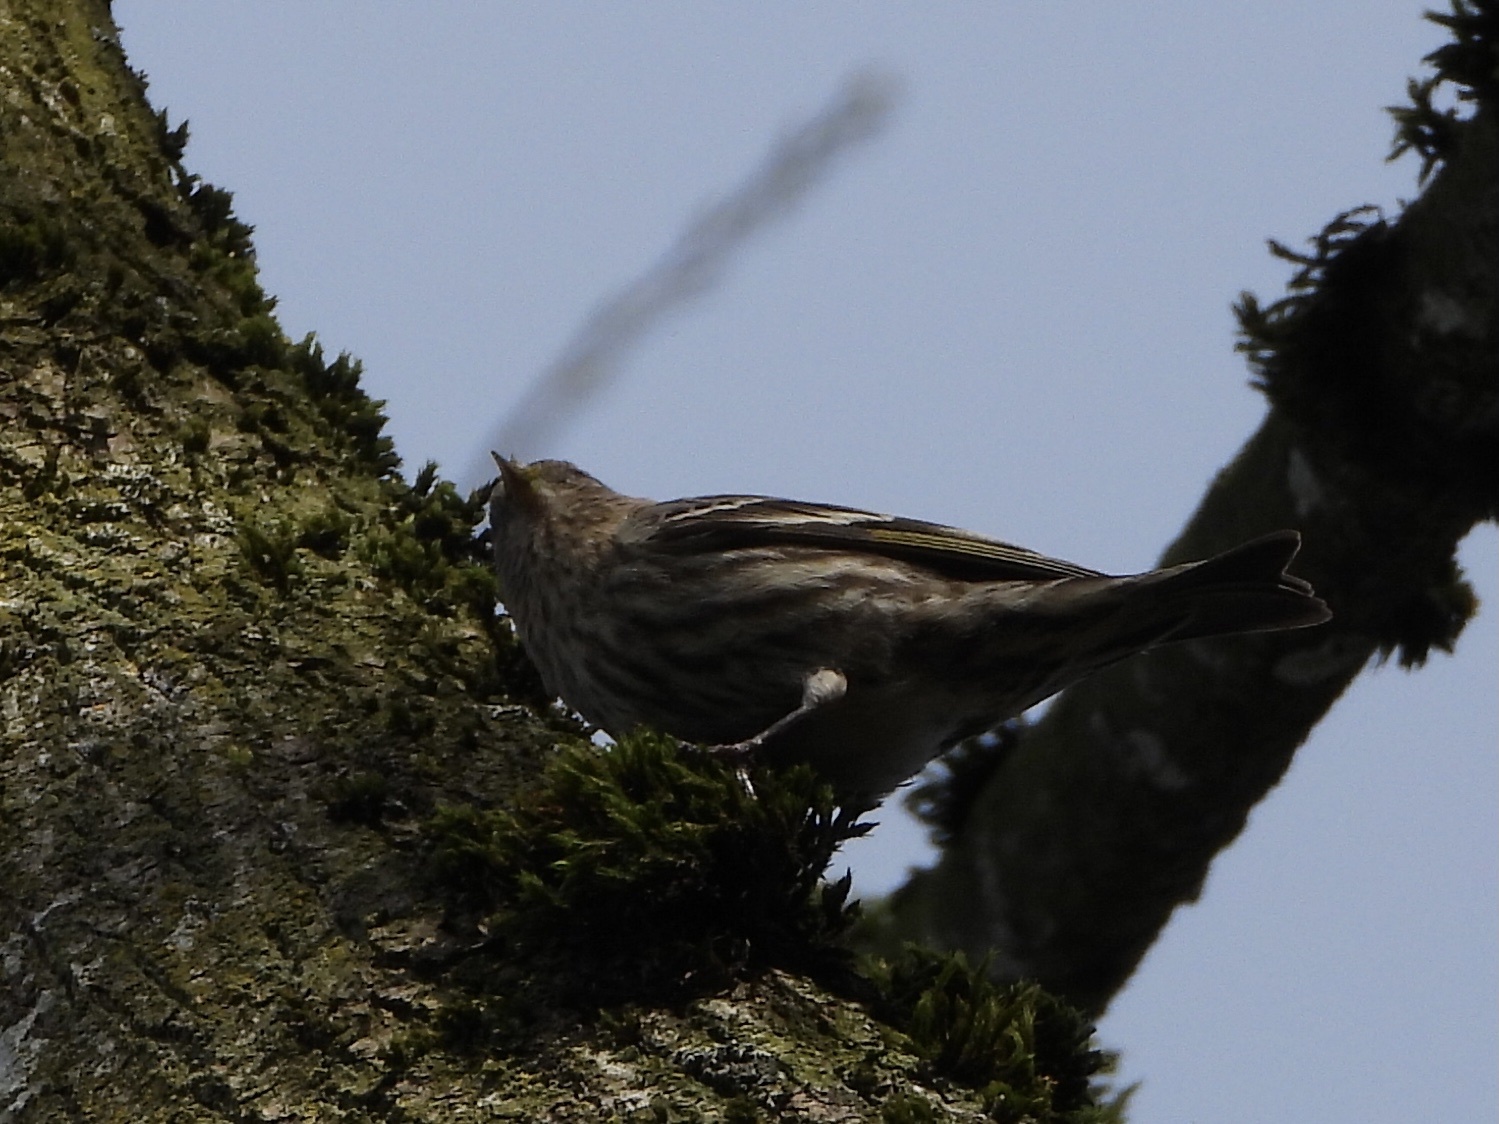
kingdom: Animalia
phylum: Chordata
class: Aves
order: Passeriformes
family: Fringillidae
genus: Spinus
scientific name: Spinus pinus
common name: Pine siskin
